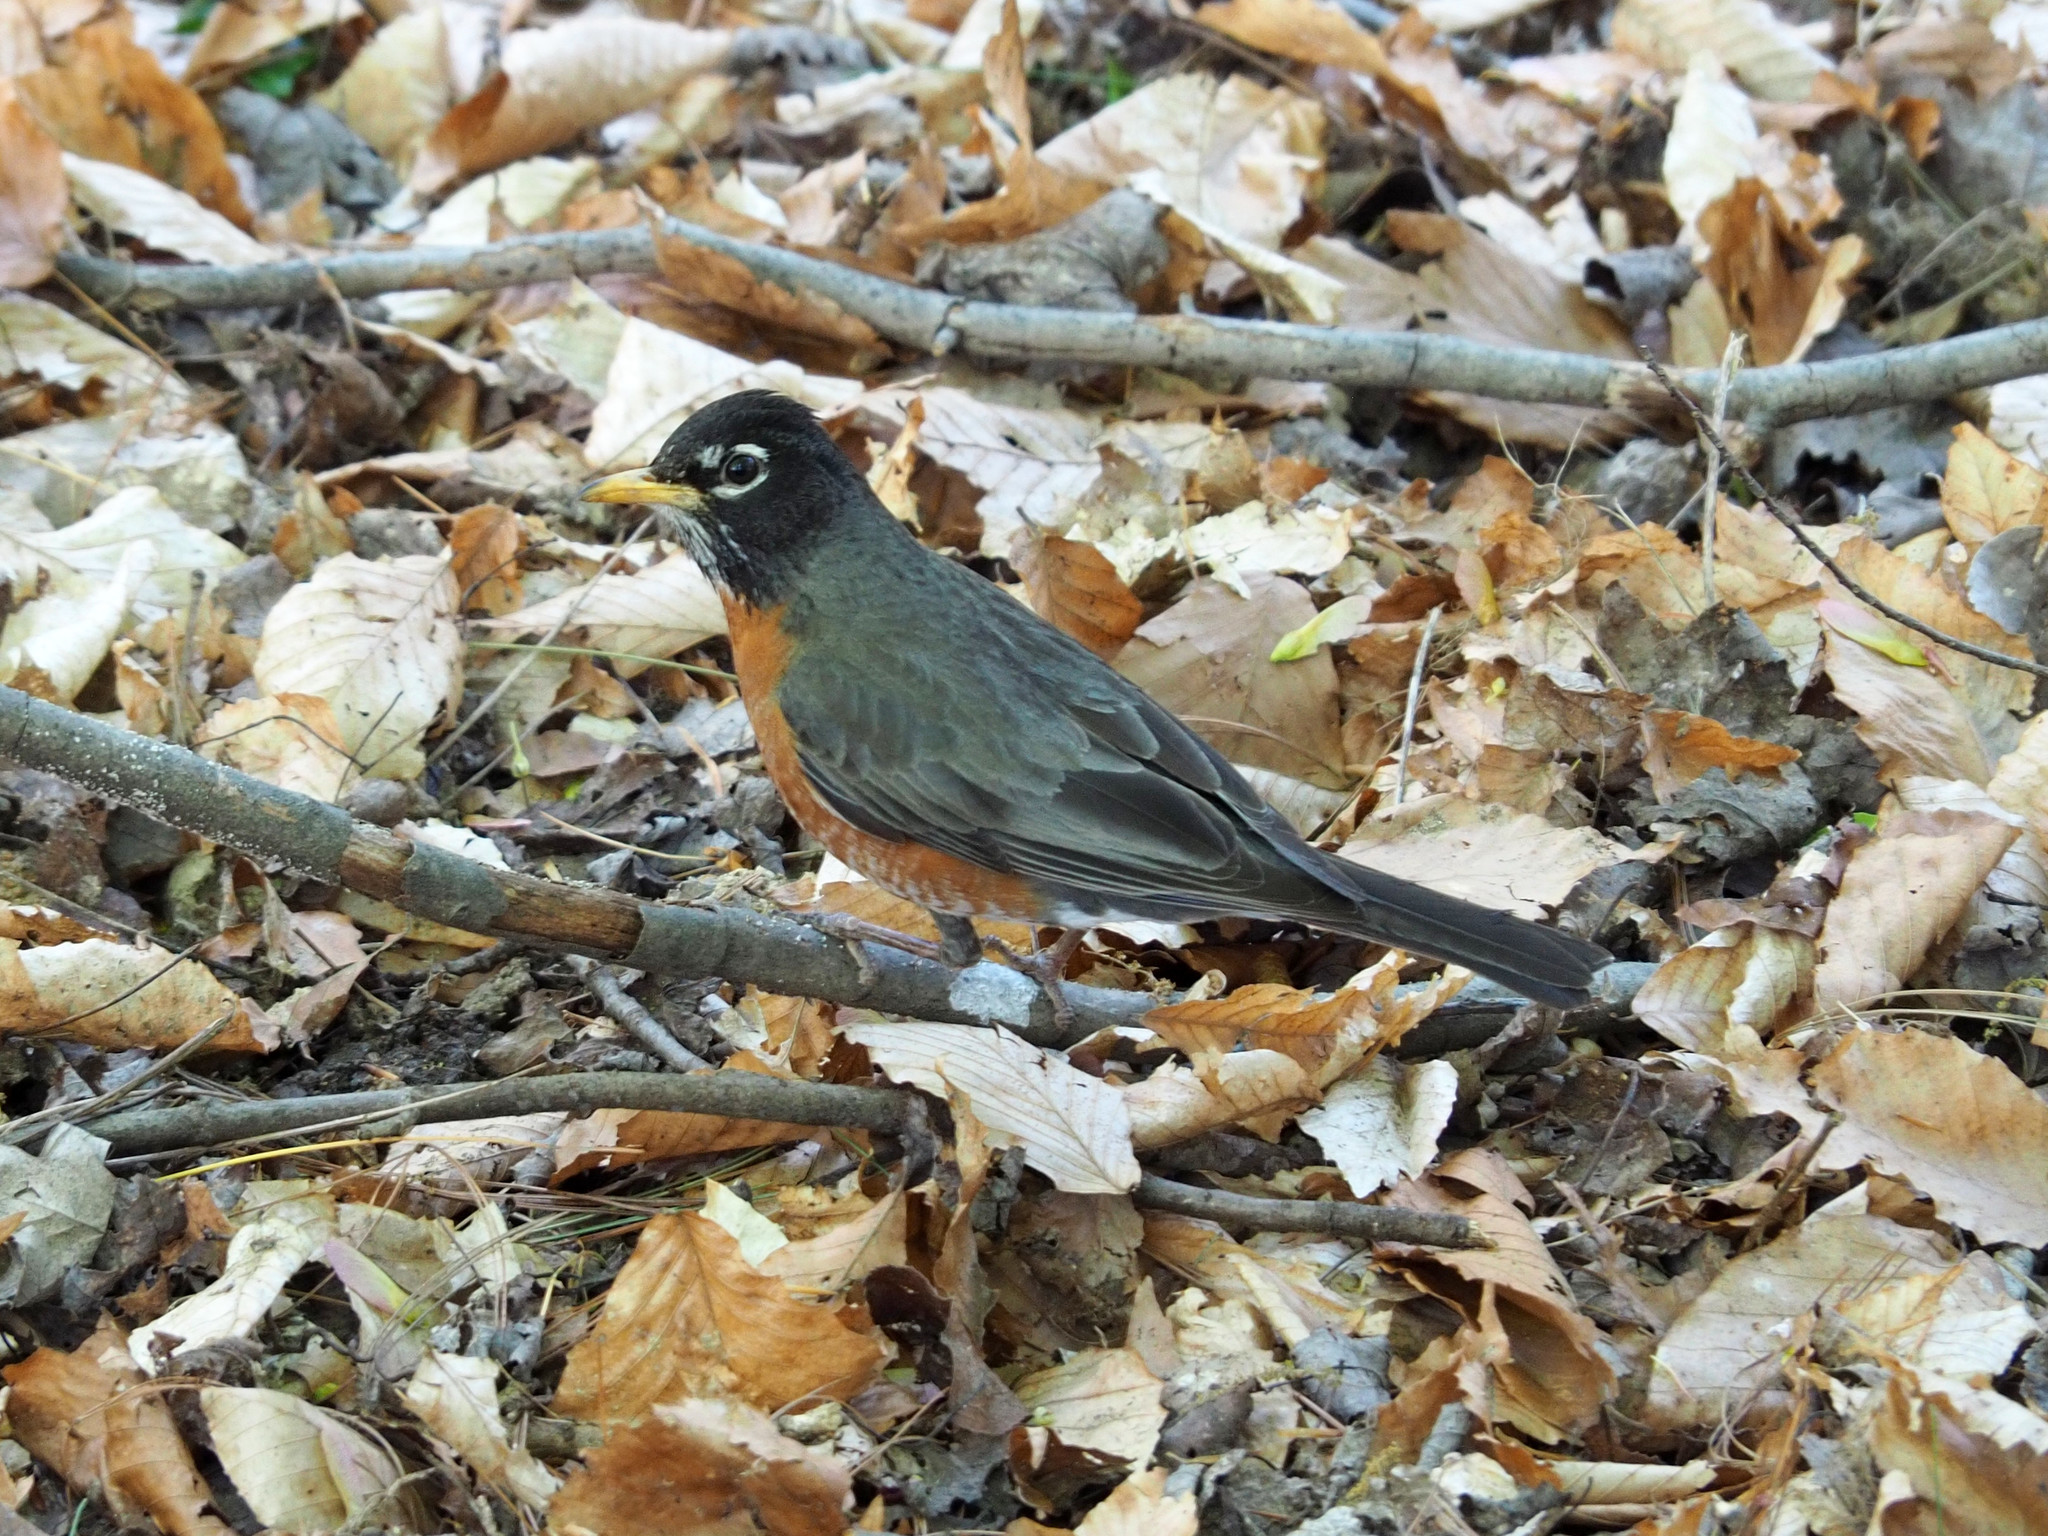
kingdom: Animalia
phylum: Chordata
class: Aves
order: Passeriformes
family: Turdidae
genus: Turdus
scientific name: Turdus migratorius
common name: American robin
